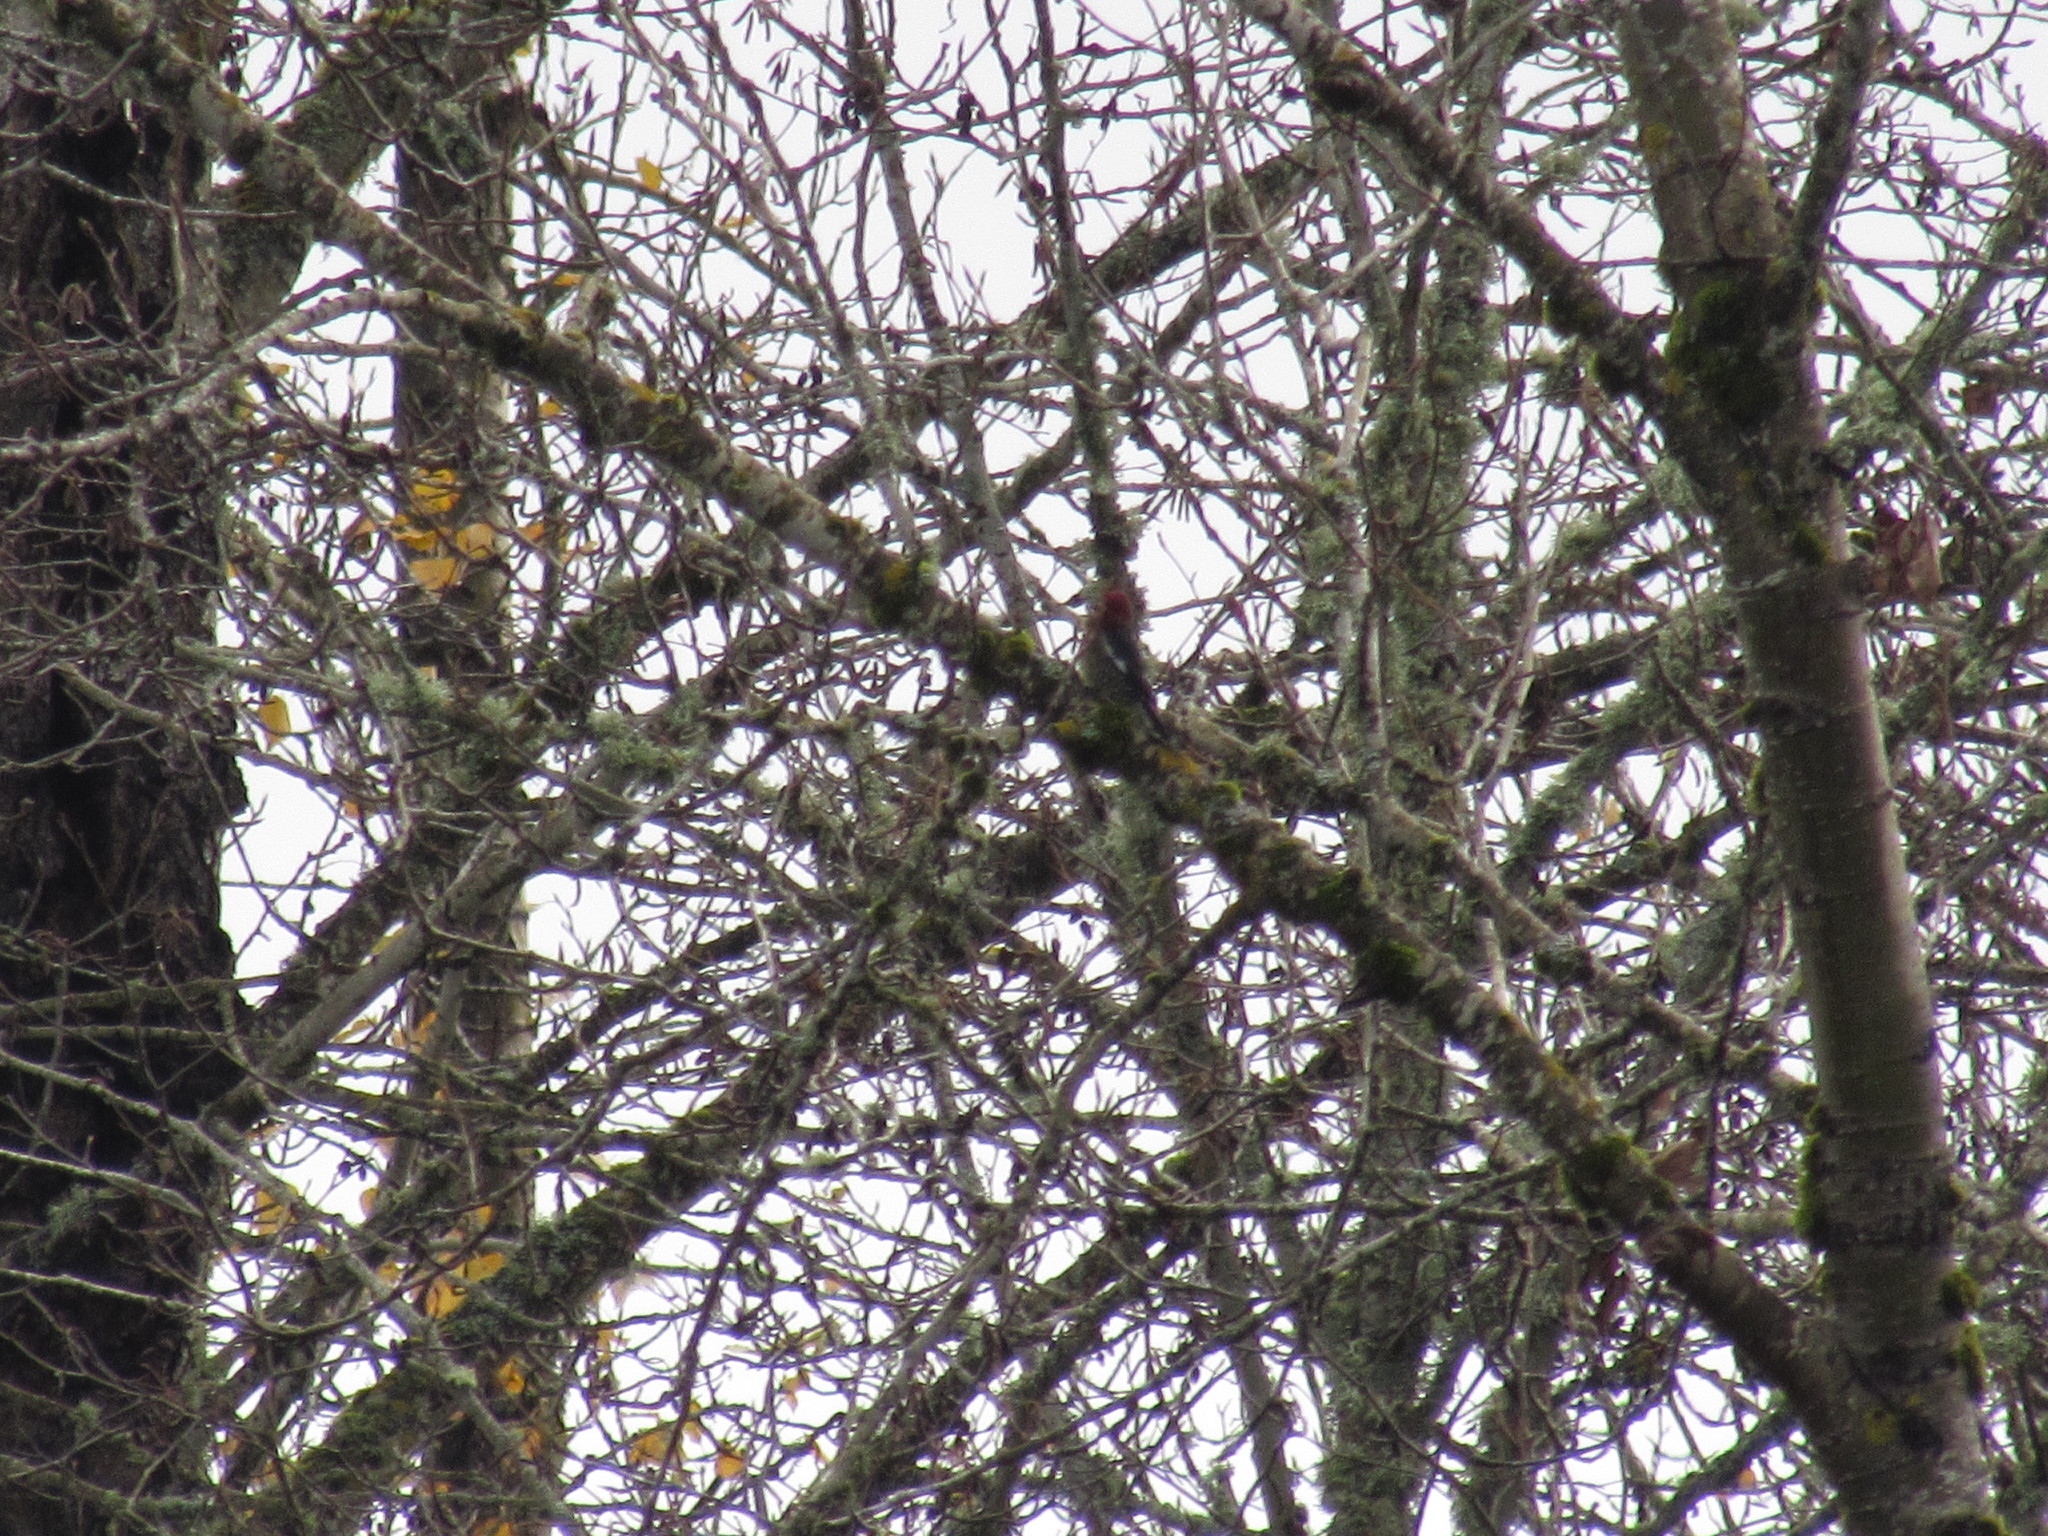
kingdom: Animalia
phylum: Chordata
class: Aves
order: Piciformes
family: Picidae
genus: Sphyrapicus
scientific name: Sphyrapicus ruber
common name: Red-breasted sapsucker
